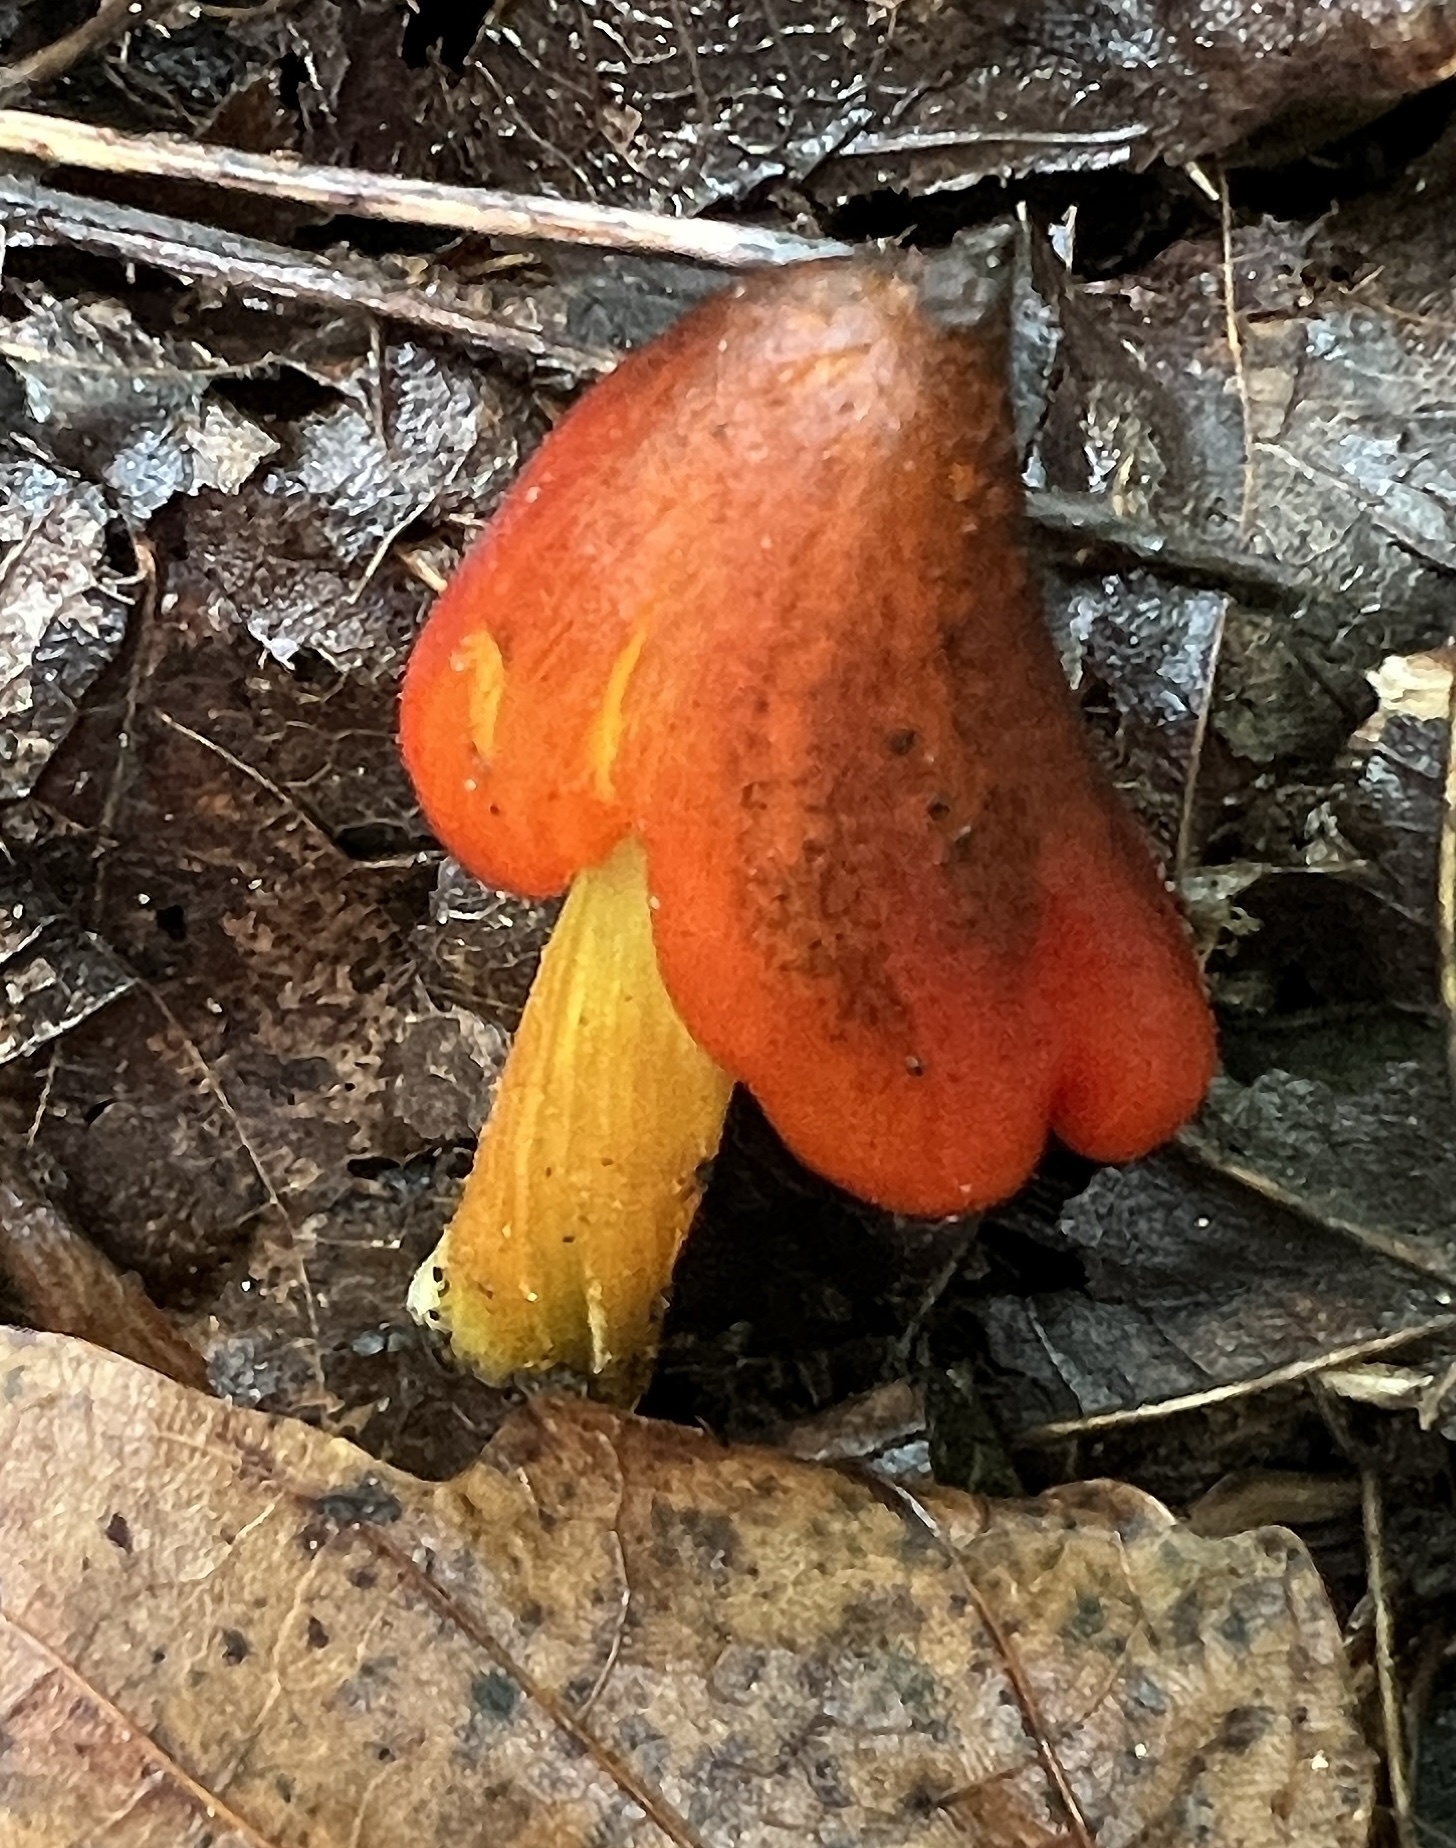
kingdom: Fungi
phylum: Basidiomycota
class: Agaricomycetes
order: Agaricales
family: Hygrophoraceae
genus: Hygrocybe
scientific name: Hygrocybe conica
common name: Blackening wax-cap
